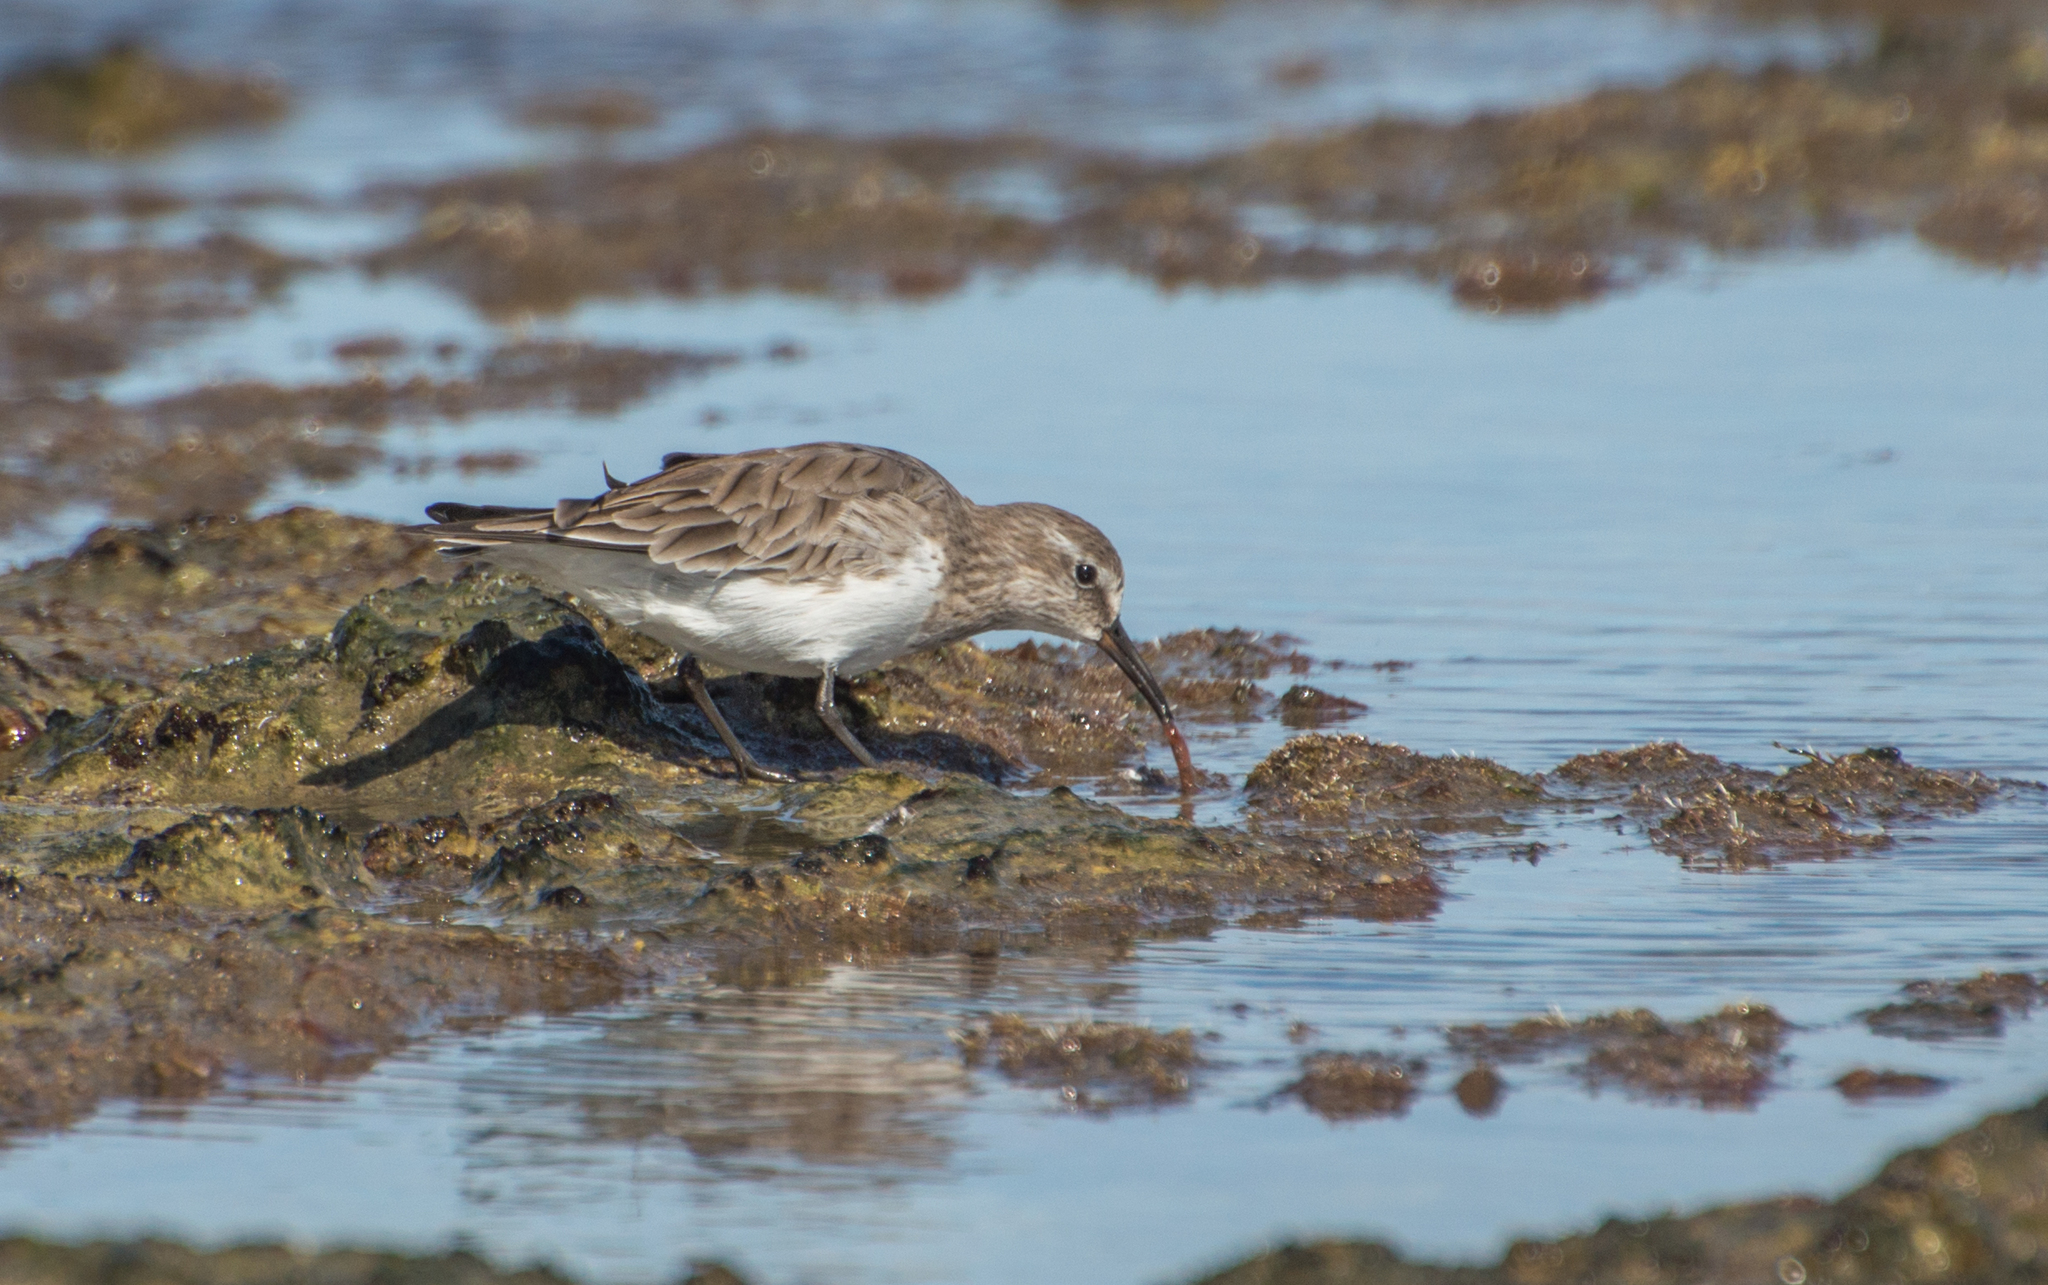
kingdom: Animalia
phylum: Chordata
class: Aves
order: Charadriiformes
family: Scolopacidae
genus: Calidris
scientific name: Calidris fuscicollis
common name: White-rumped sandpiper
